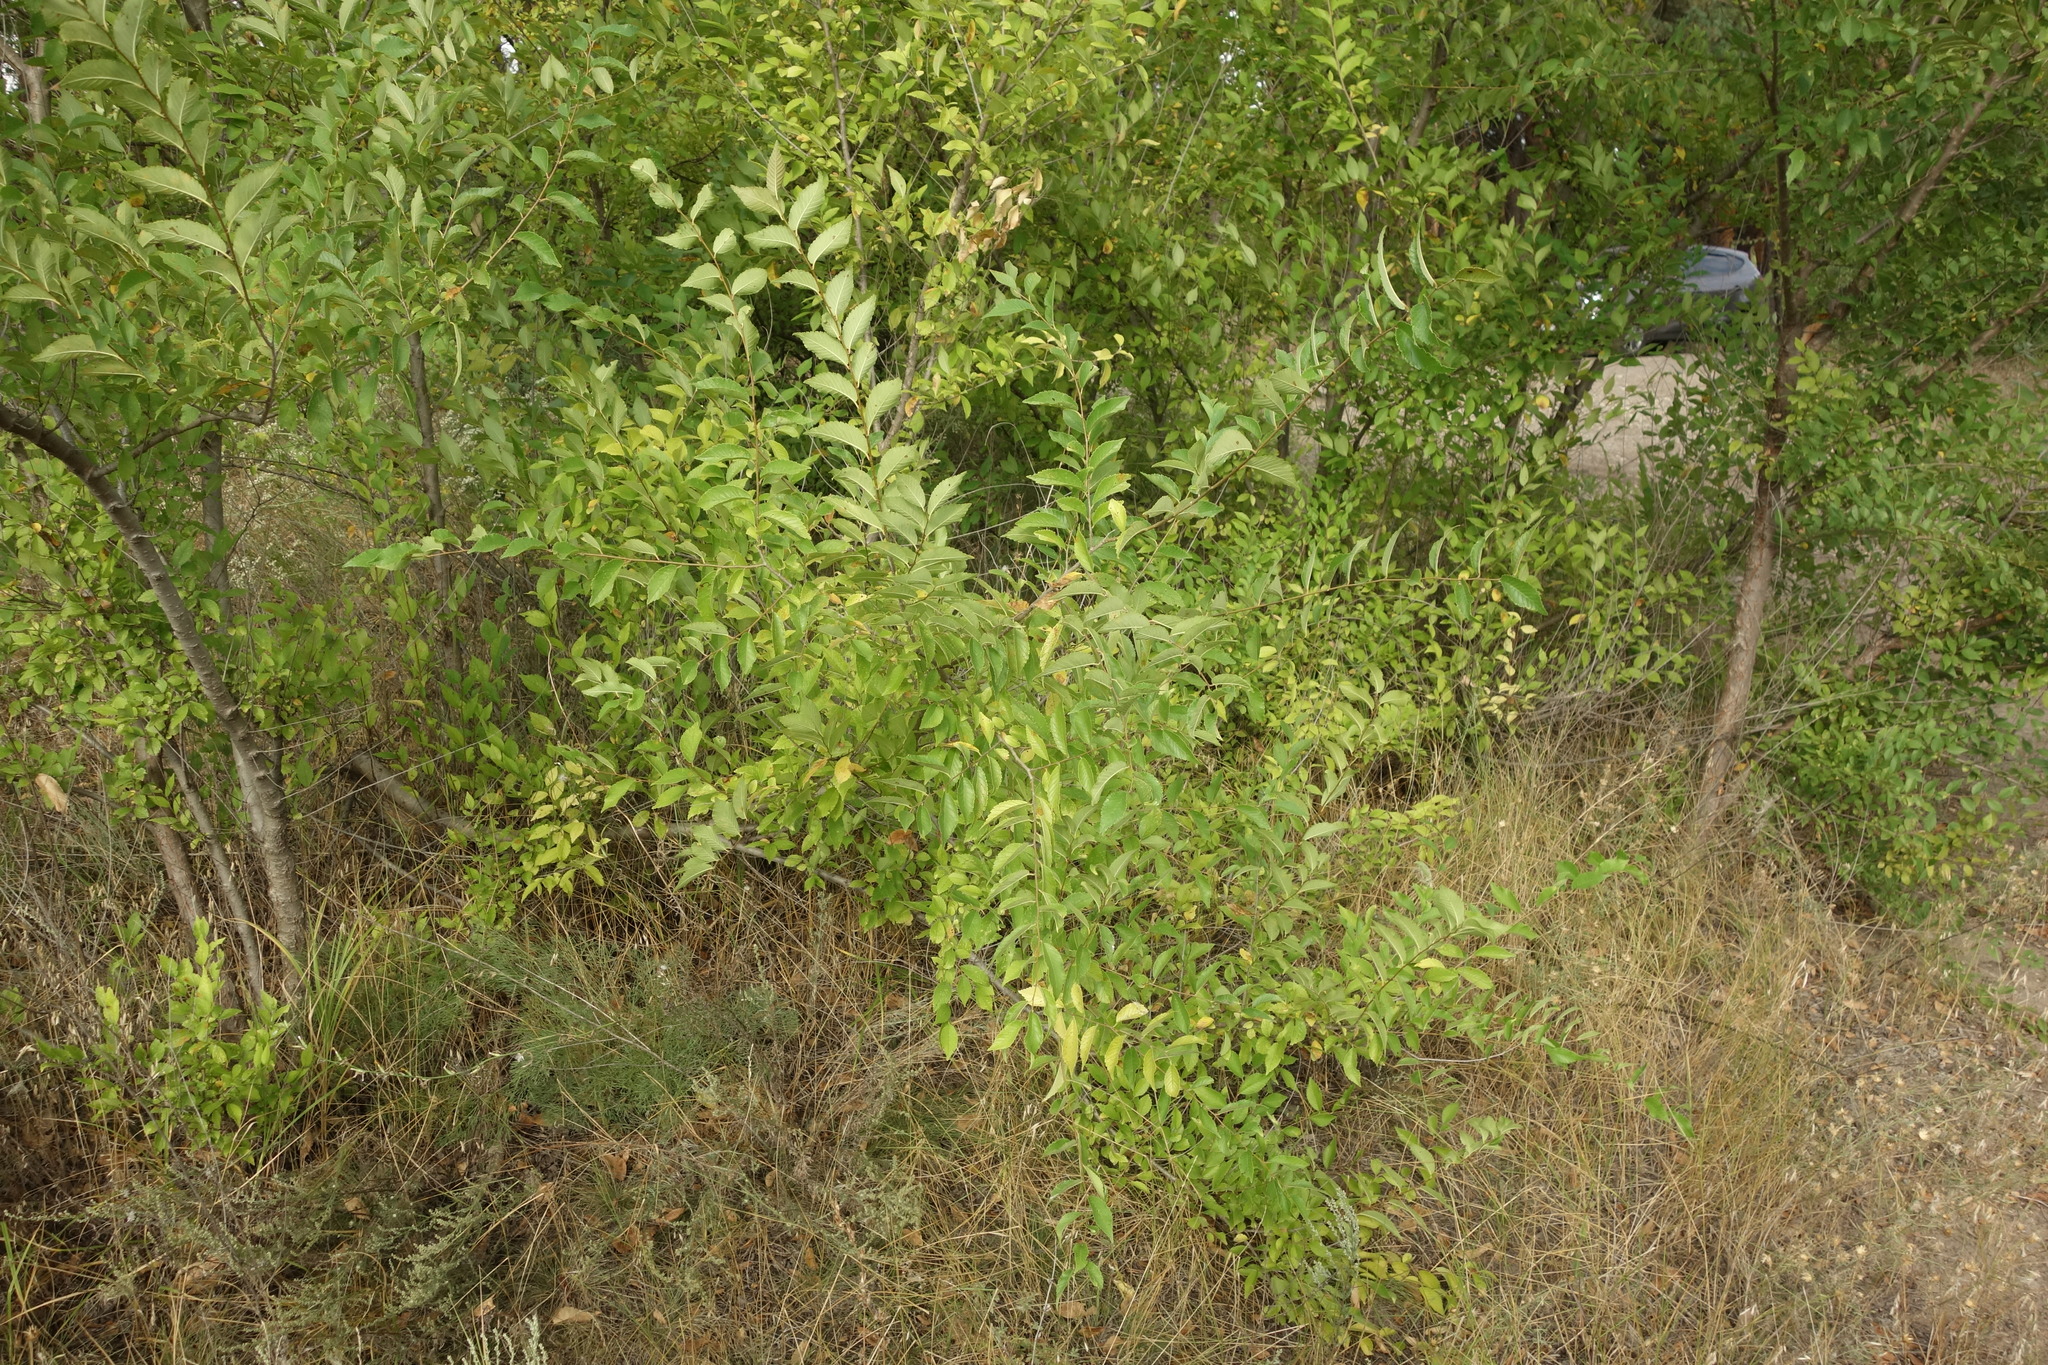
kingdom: Plantae
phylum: Tracheophyta
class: Magnoliopsida
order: Rosales
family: Ulmaceae
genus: Ulmus
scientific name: Ulmus pumila
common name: Siberian elm
